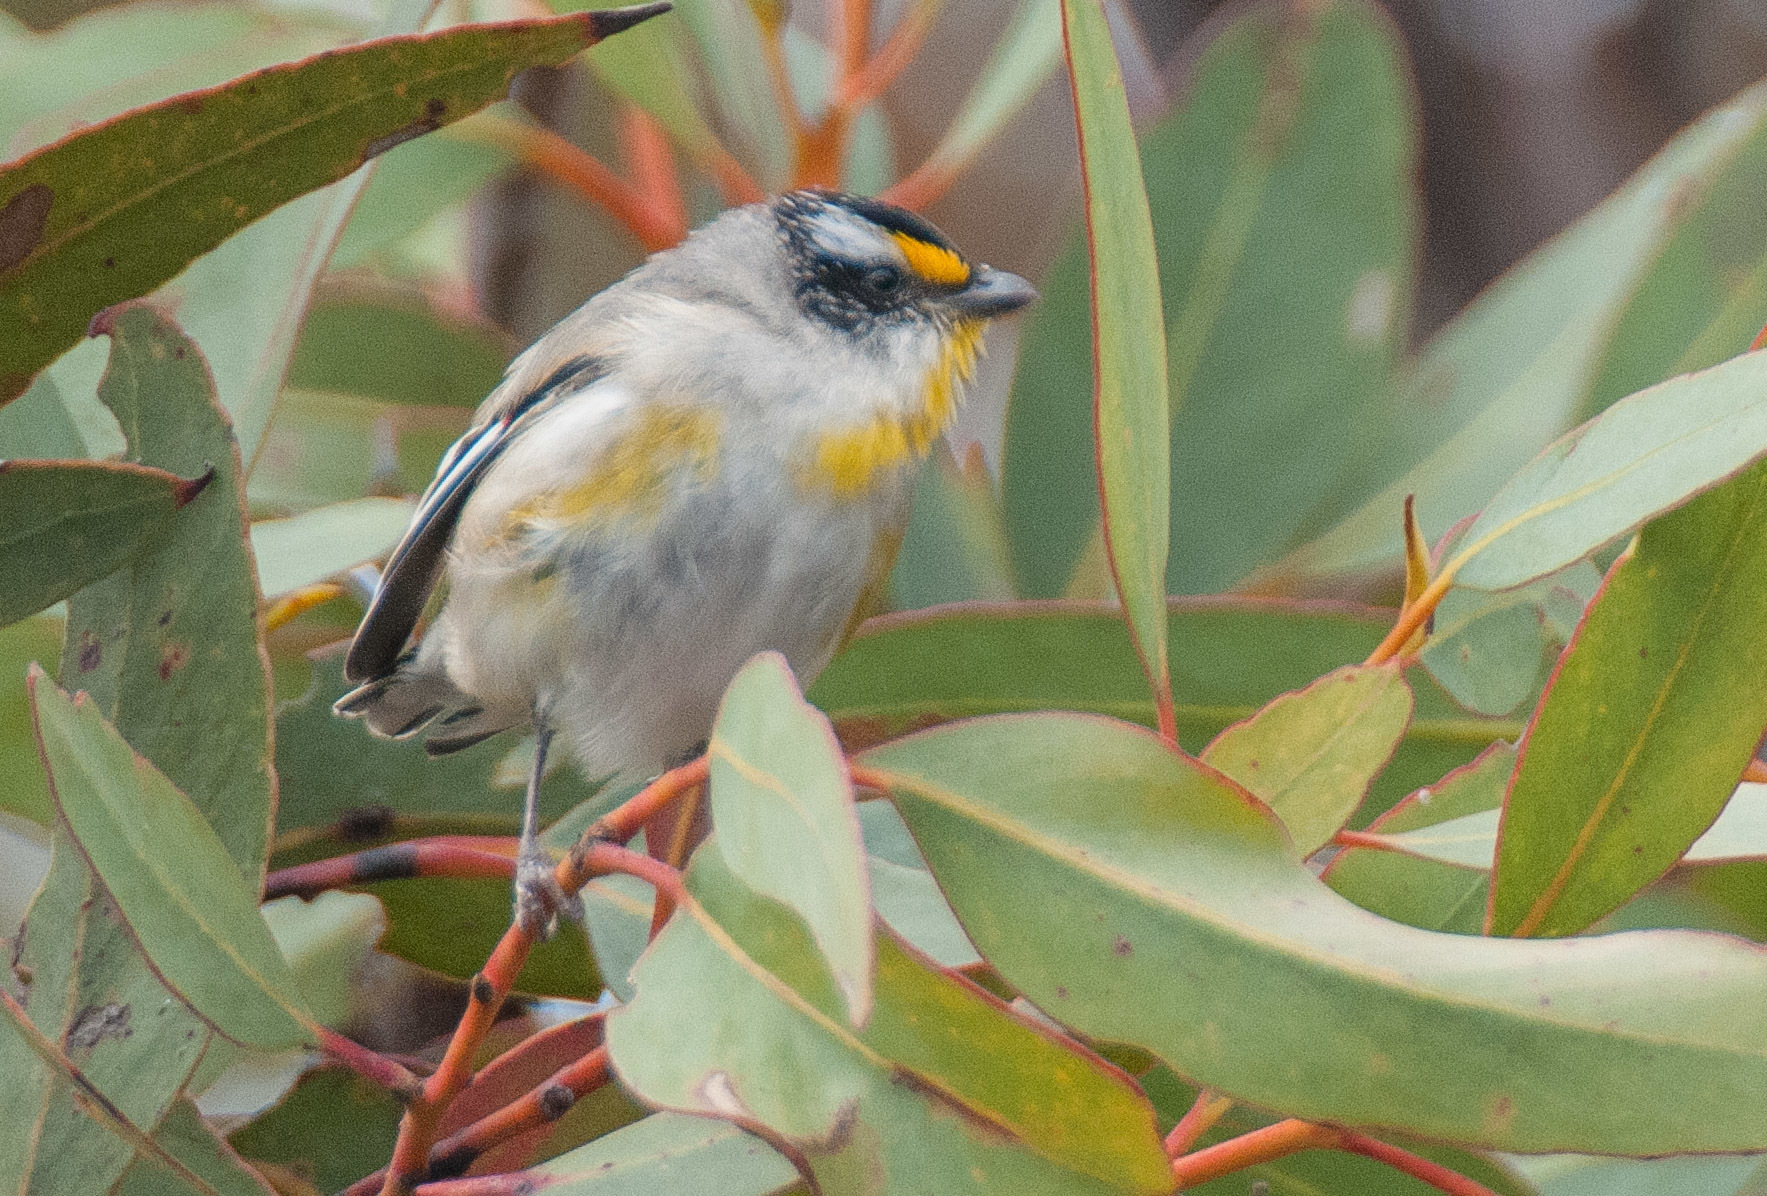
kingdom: Animalia
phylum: Chordata
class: Aves
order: Passeriformes
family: Pardalotidae
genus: Pardalotus
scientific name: Pardalotus striatus
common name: Striated pardalote
